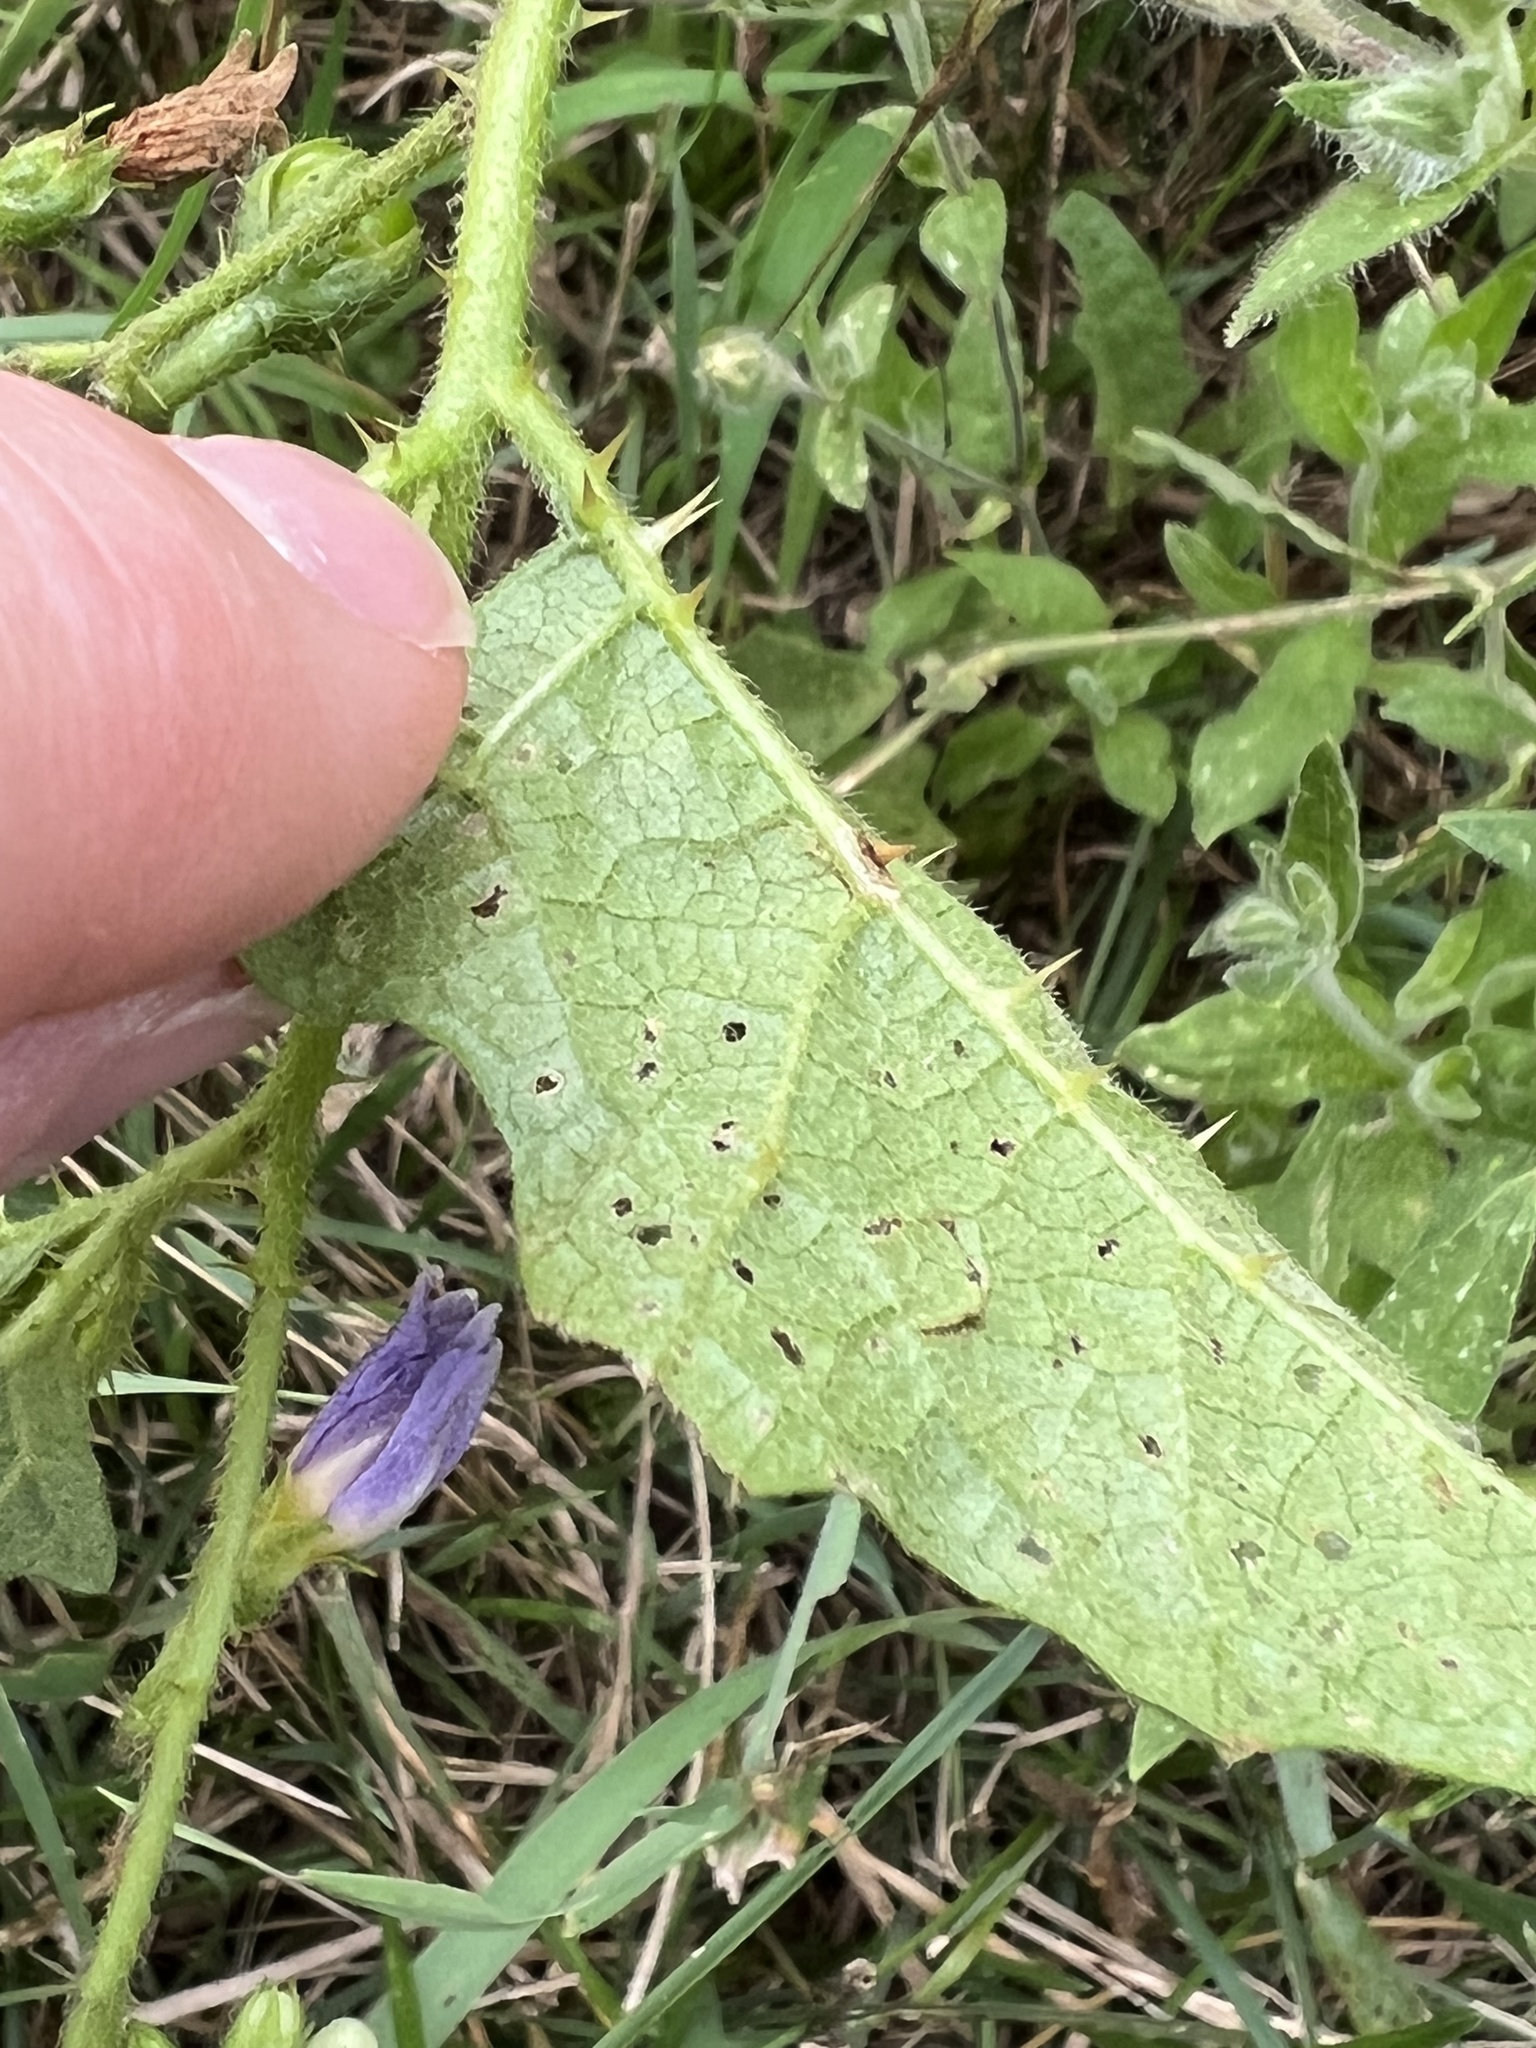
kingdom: Plantae
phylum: Tracheophyta
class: Magnoliopsida
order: Solanales
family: Solanaceae
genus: Solanum
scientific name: Solanum carolinense
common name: Horse-nettle
